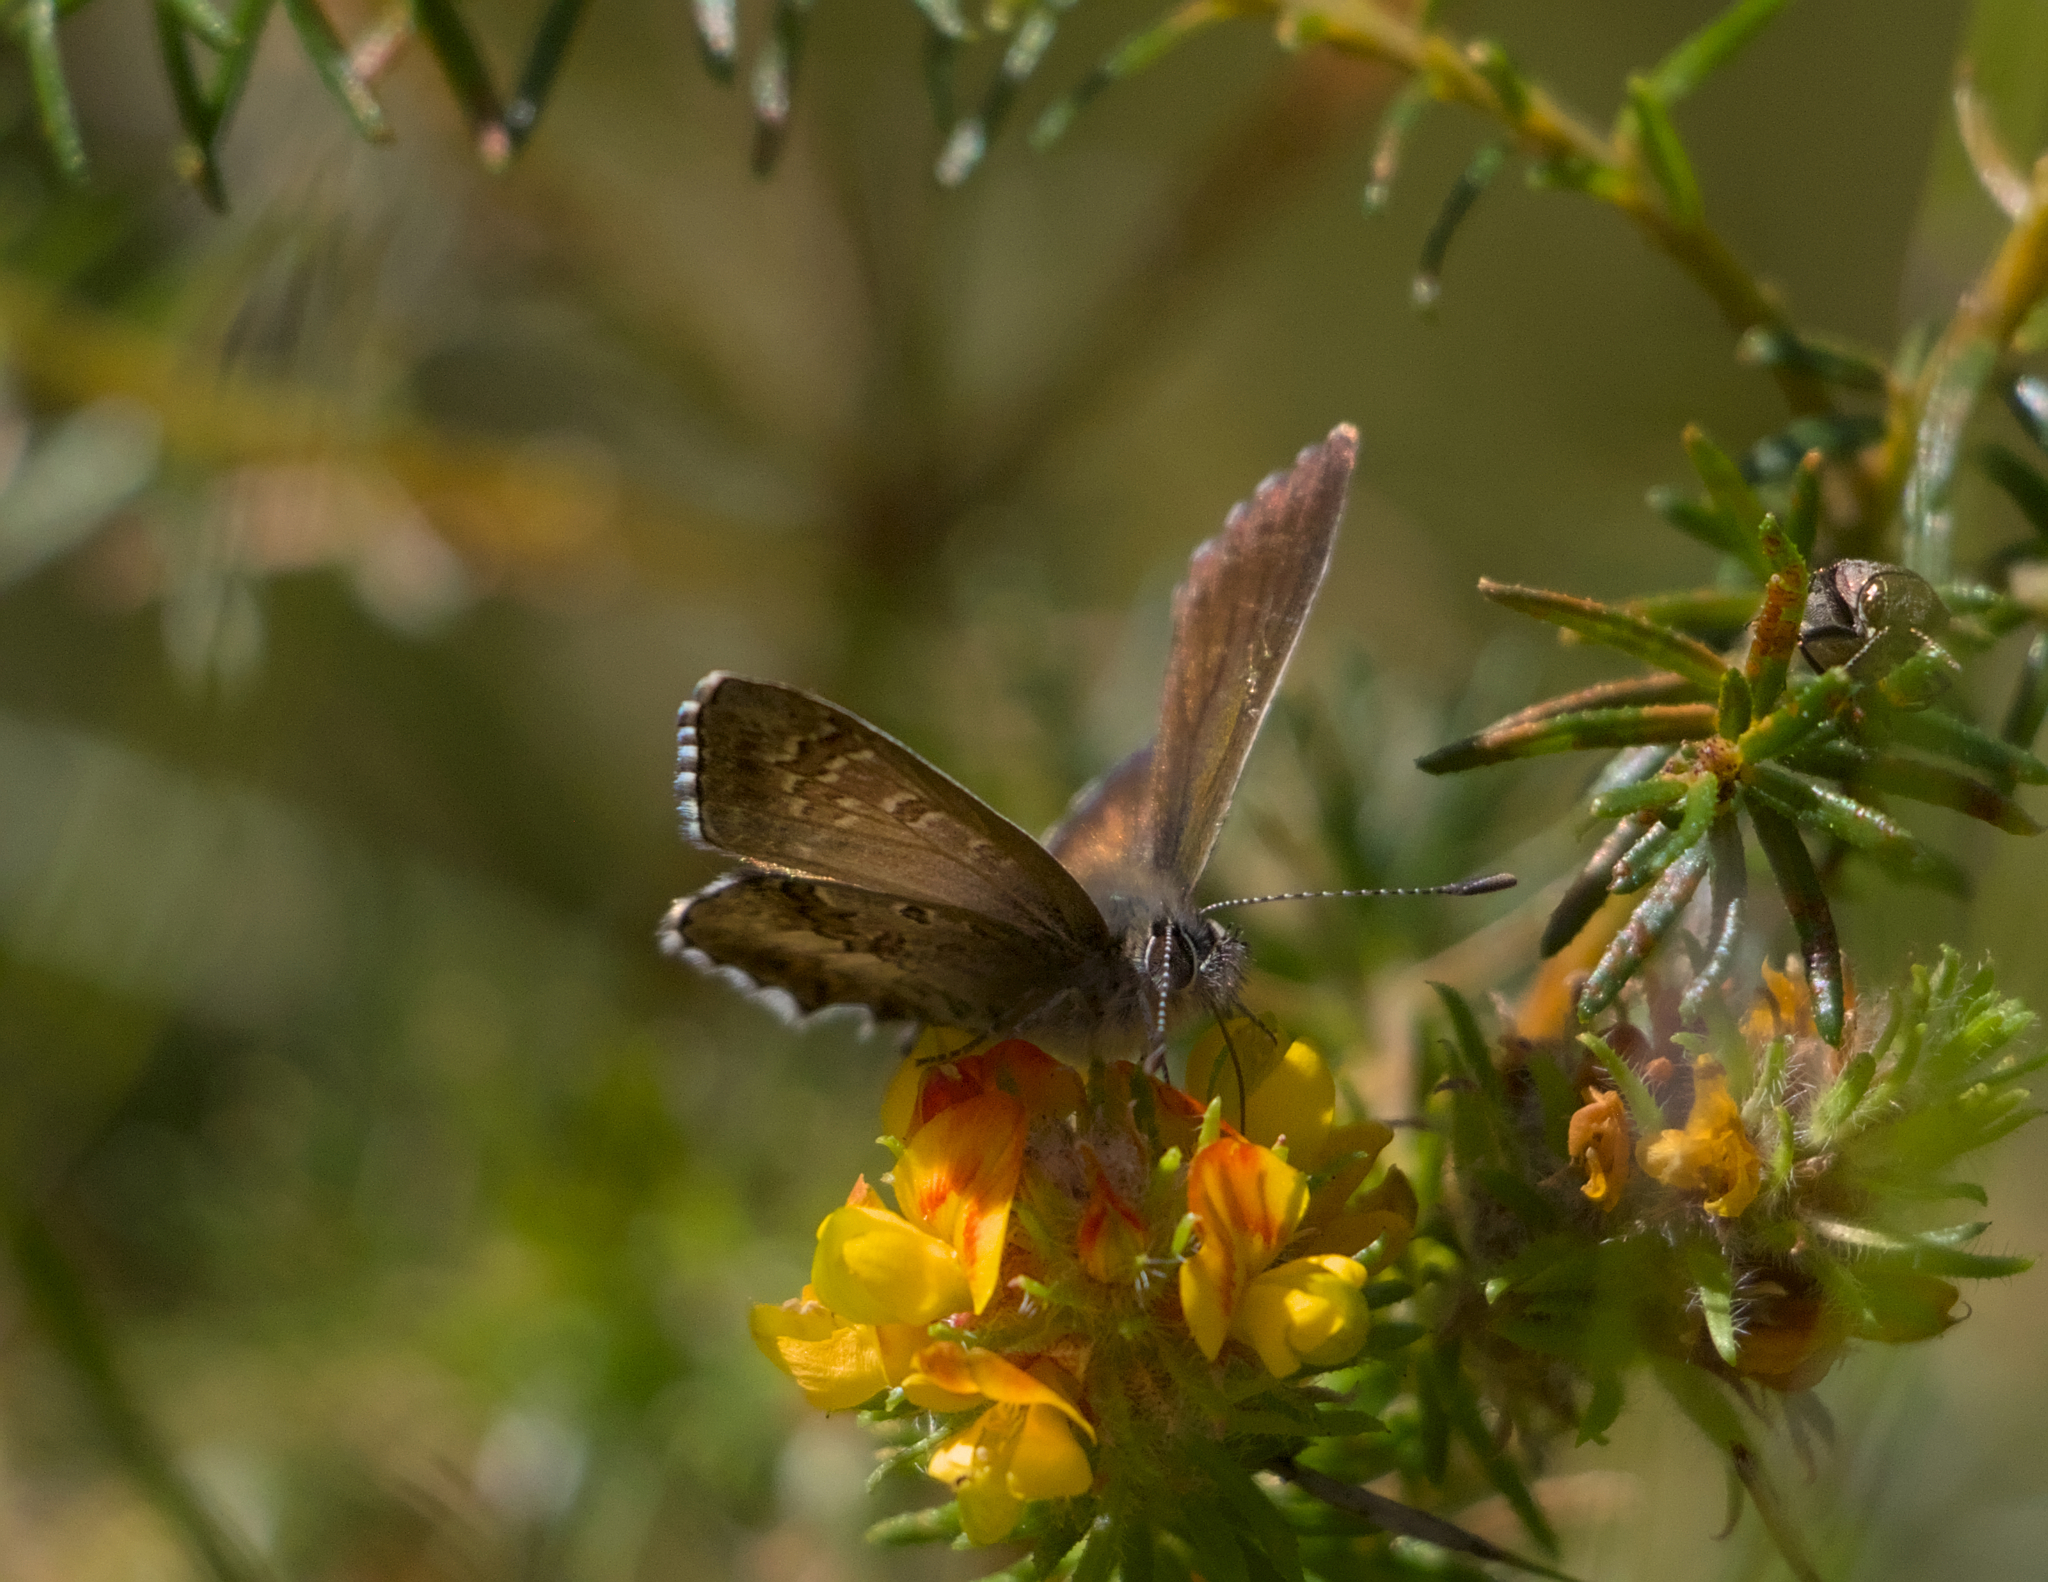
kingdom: Animalia
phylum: Arthropoda
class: Insecta
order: Lepidoptera
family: Lycaenidae
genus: Neolucia
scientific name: Neolucia agricola
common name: Fringed blue
